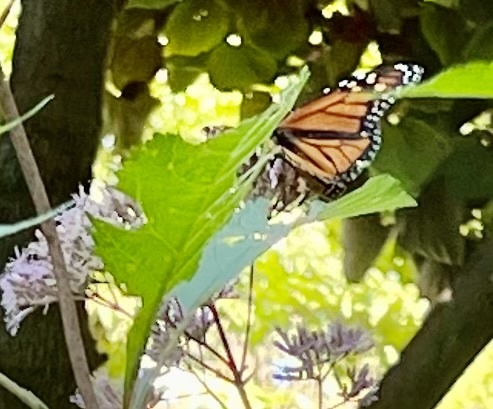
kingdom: Animalia
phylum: Arthropoda
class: Insecta
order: Lepidoptera
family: Nymphalidae
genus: Danaus
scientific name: Danaus plexippus
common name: Monarch
